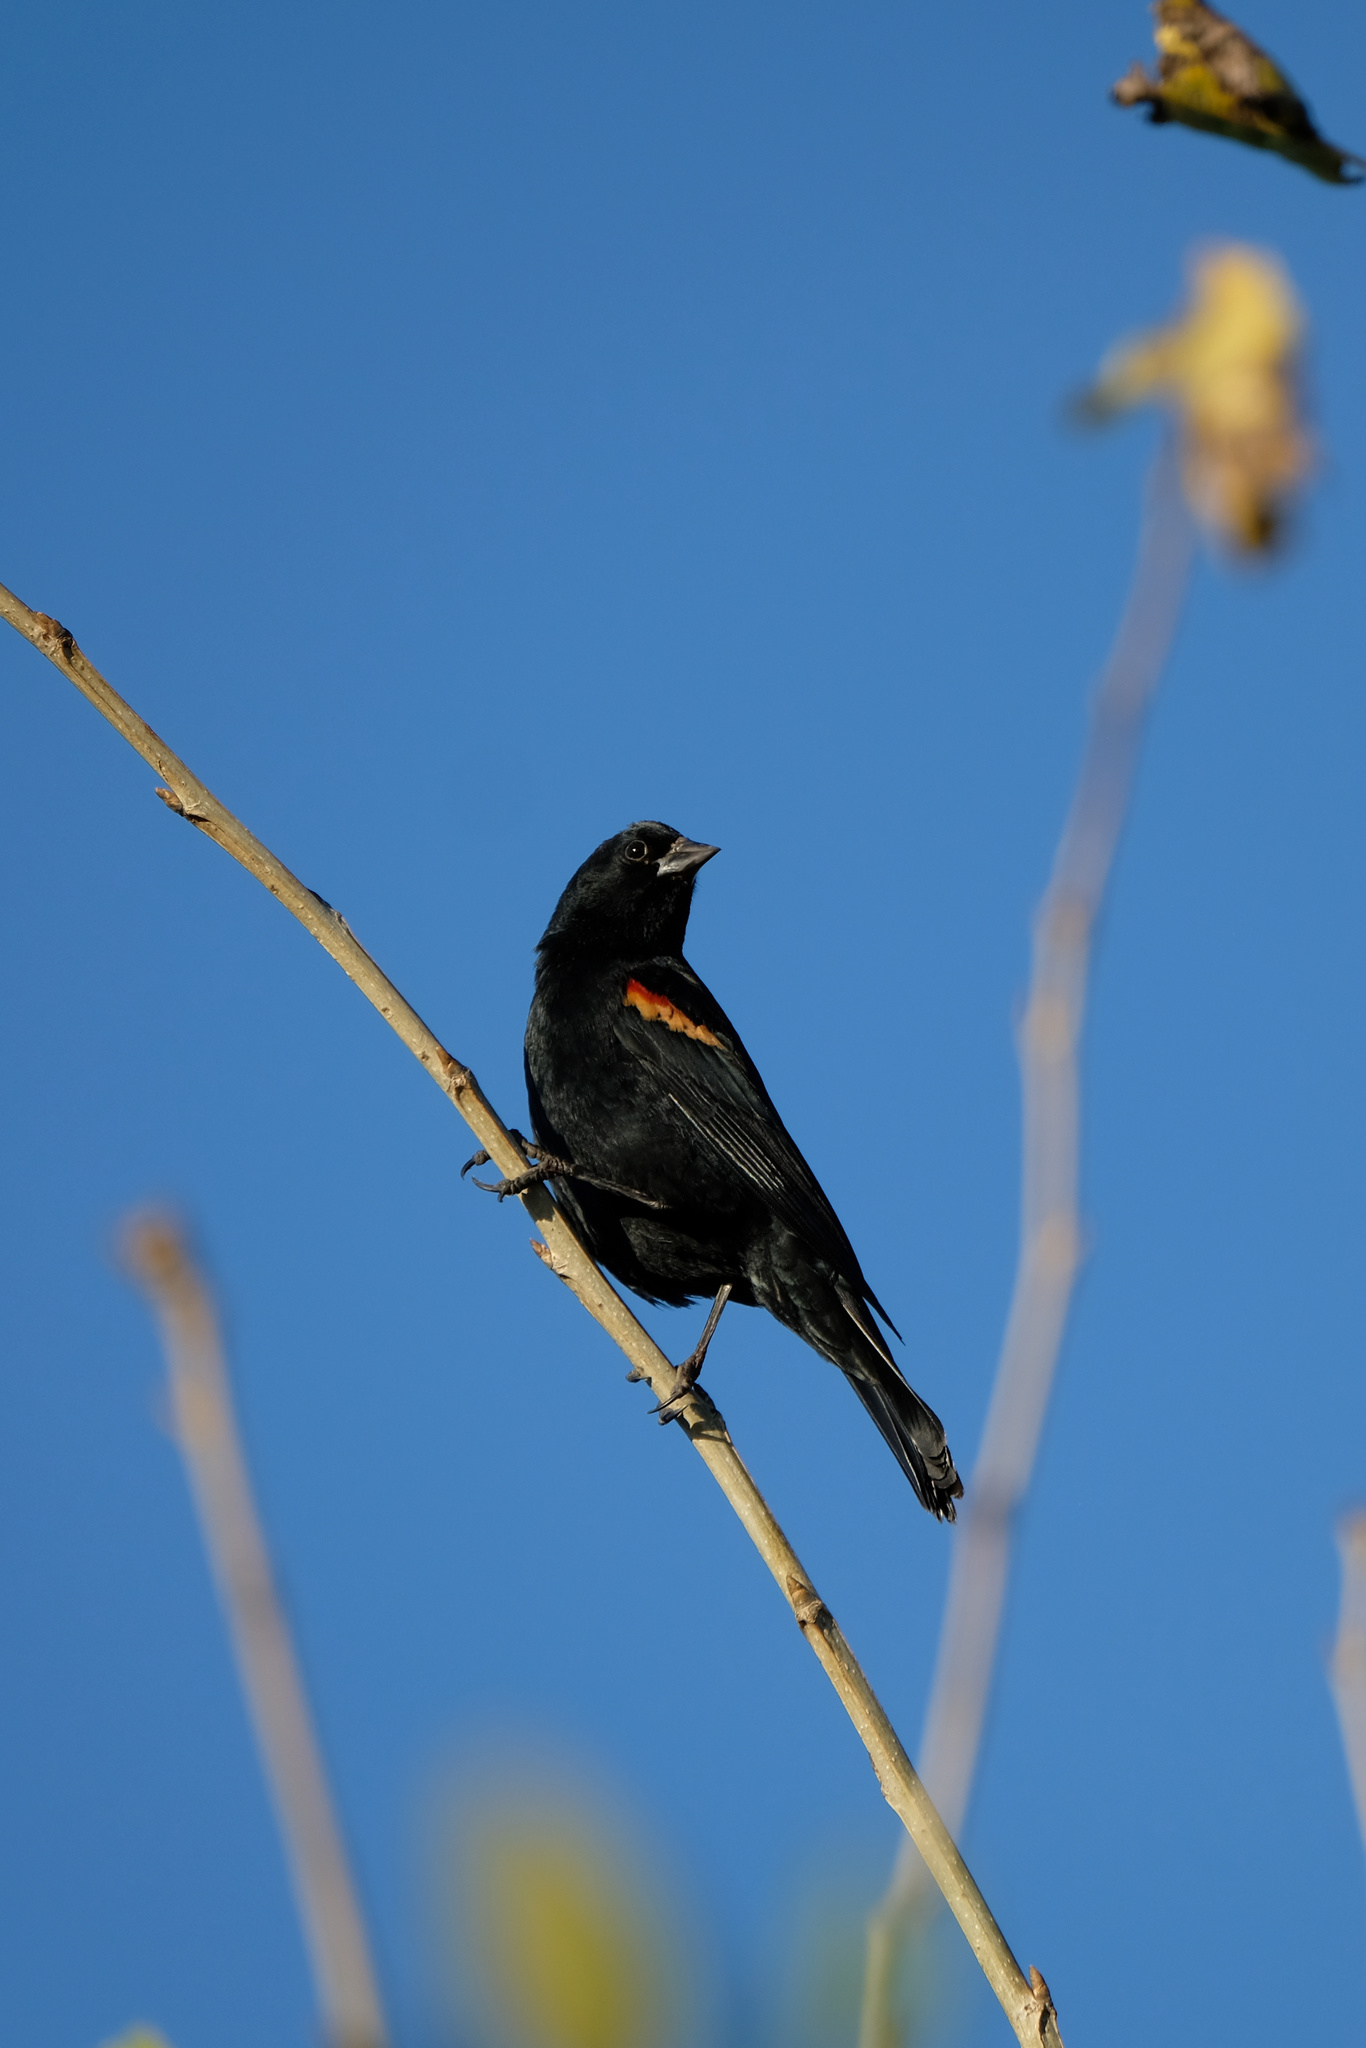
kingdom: Animalia
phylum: Chordata
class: Aves
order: Passeriformes
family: Icteridae
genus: Agelaius
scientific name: Agelaius phoeniceus
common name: Red-winged blackbird
